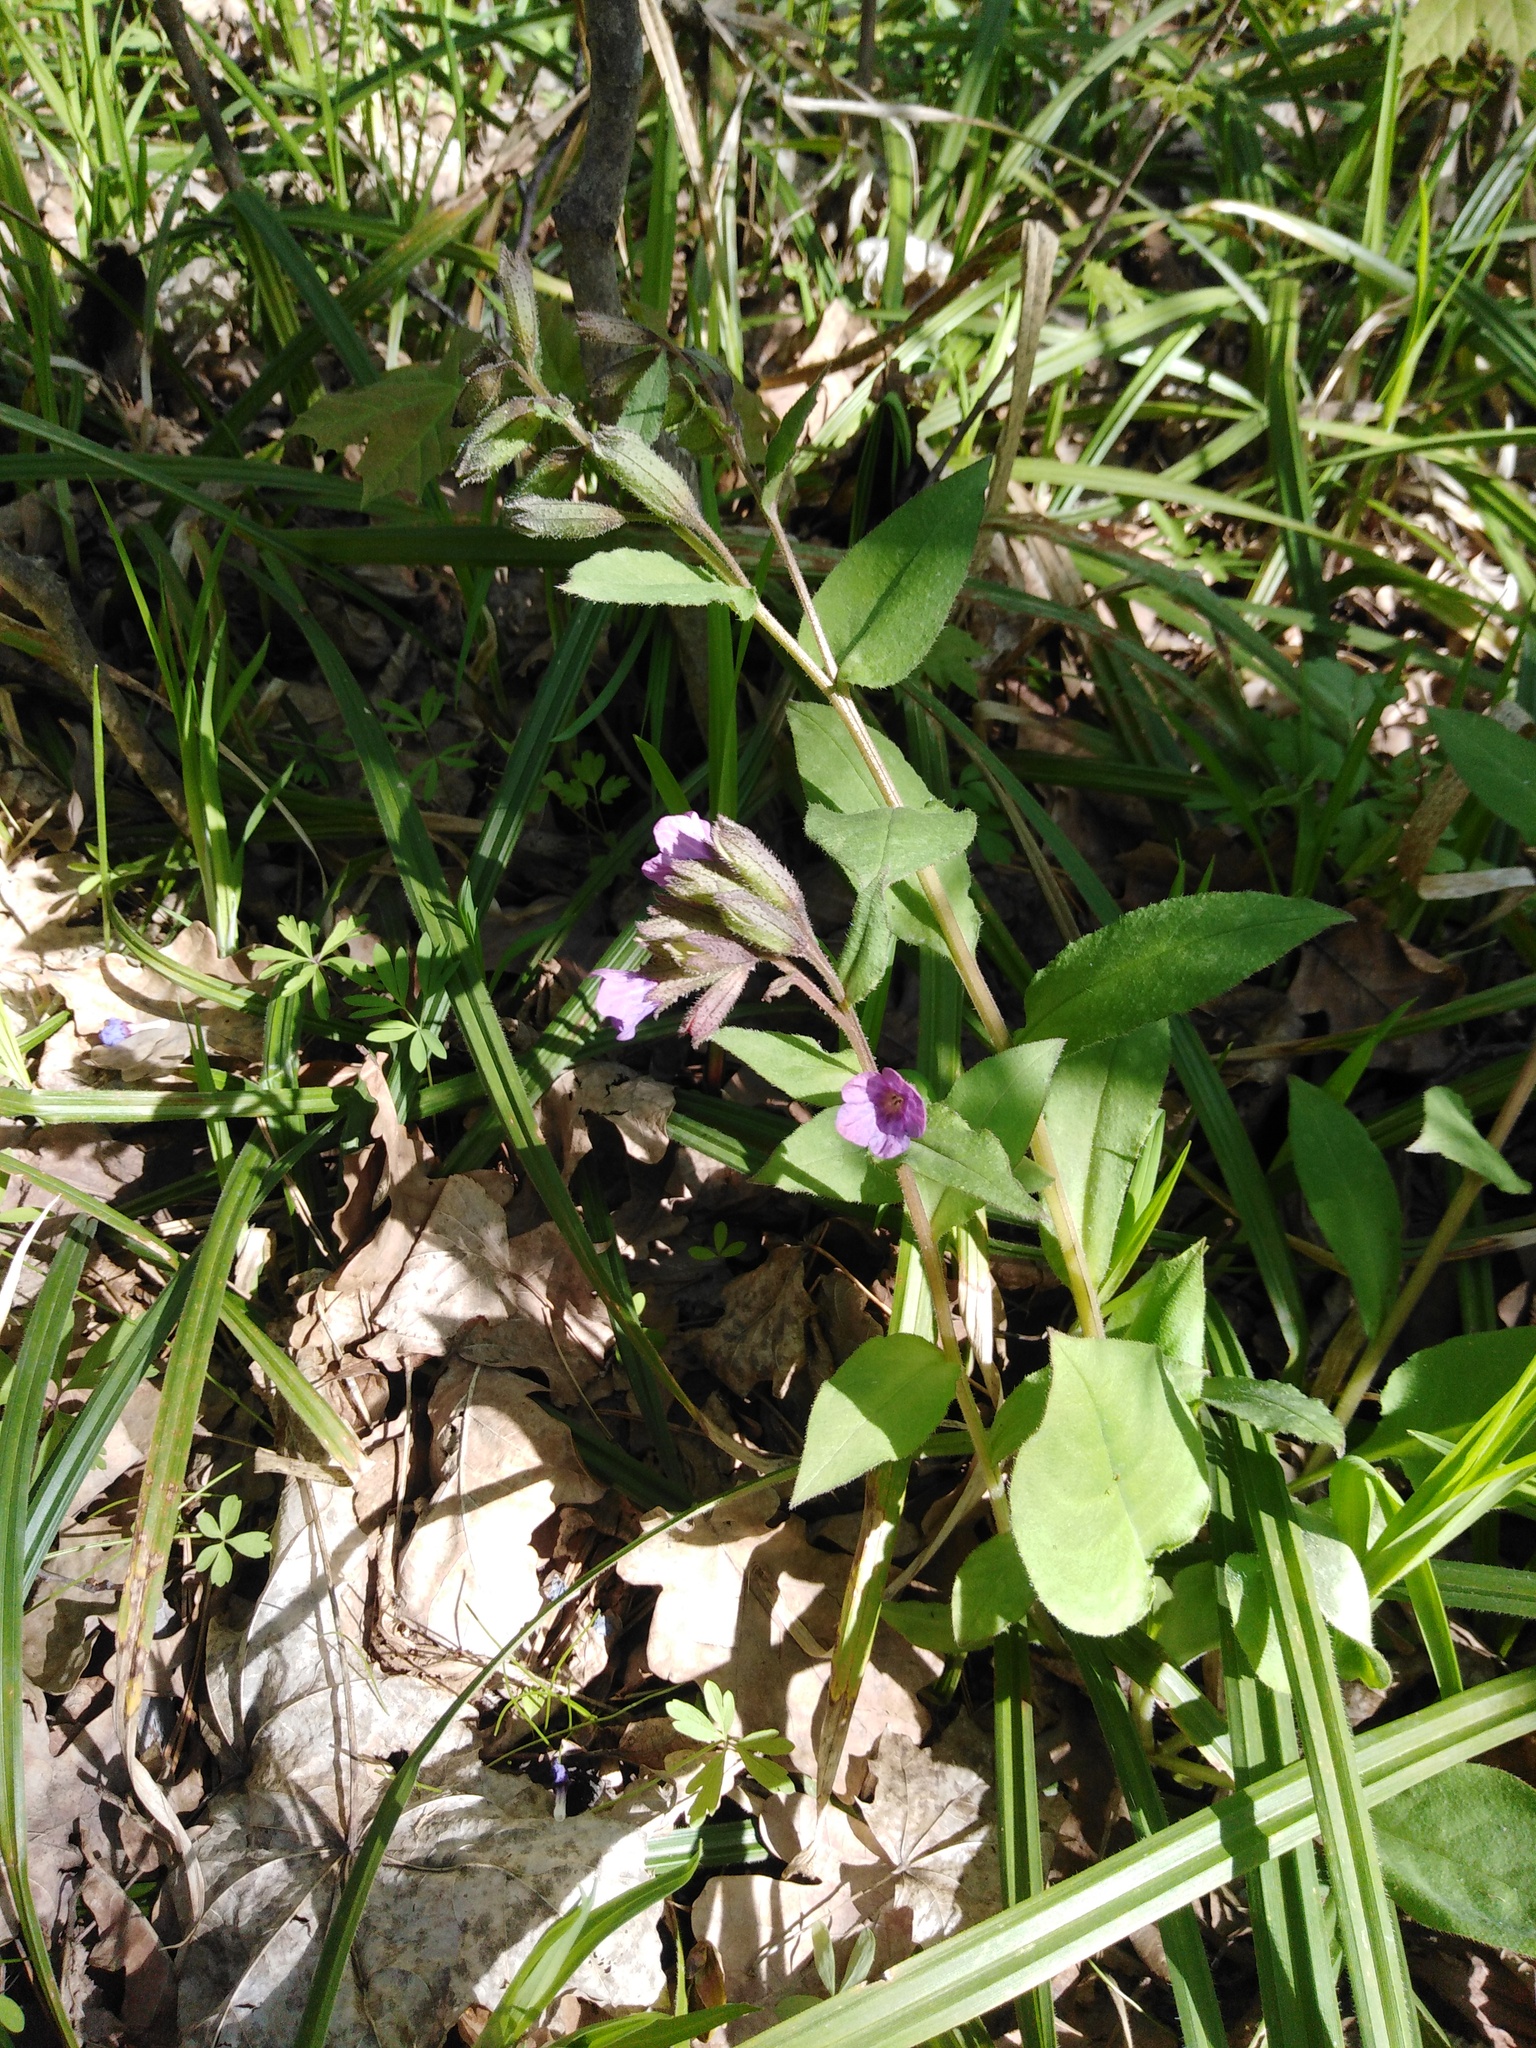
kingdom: Plantae
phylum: Tracheophyta
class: Magnoliopsida
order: Boraginales
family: Boraginaceae
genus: Pulmonaria
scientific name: Pulmonaria obscura
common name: Suffolk lungwort
